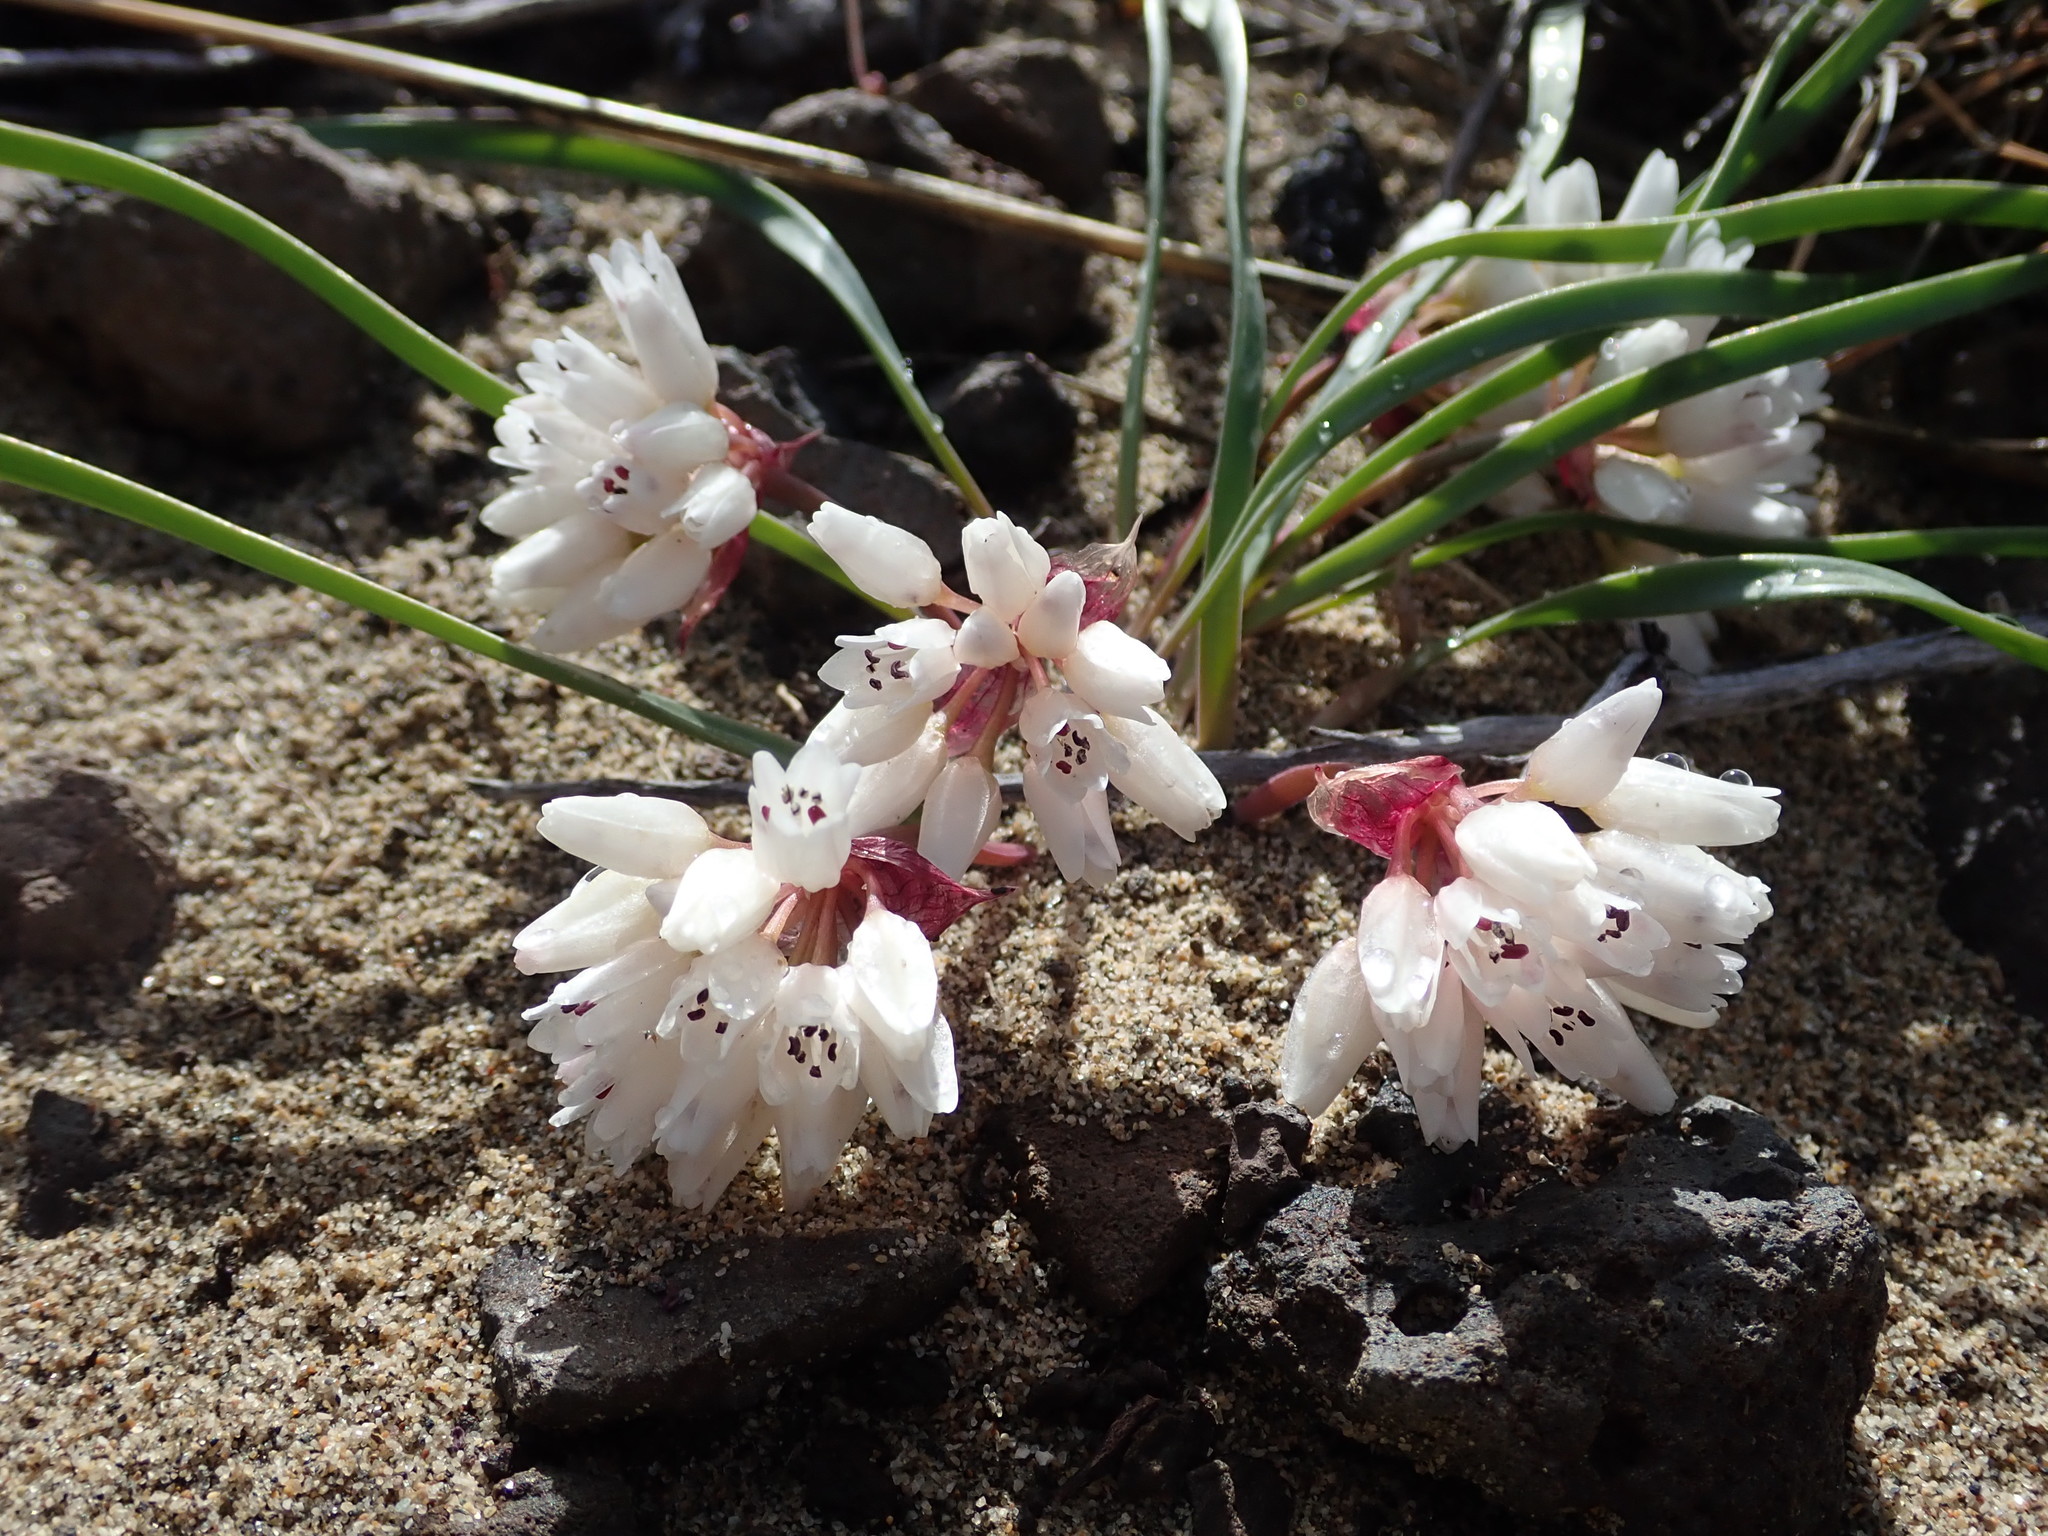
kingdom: Plantae
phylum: Tracheophyta
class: Liliopsida
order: Asparagales
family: Amaryllidaceae
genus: Allium
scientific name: Allium robinsonii
